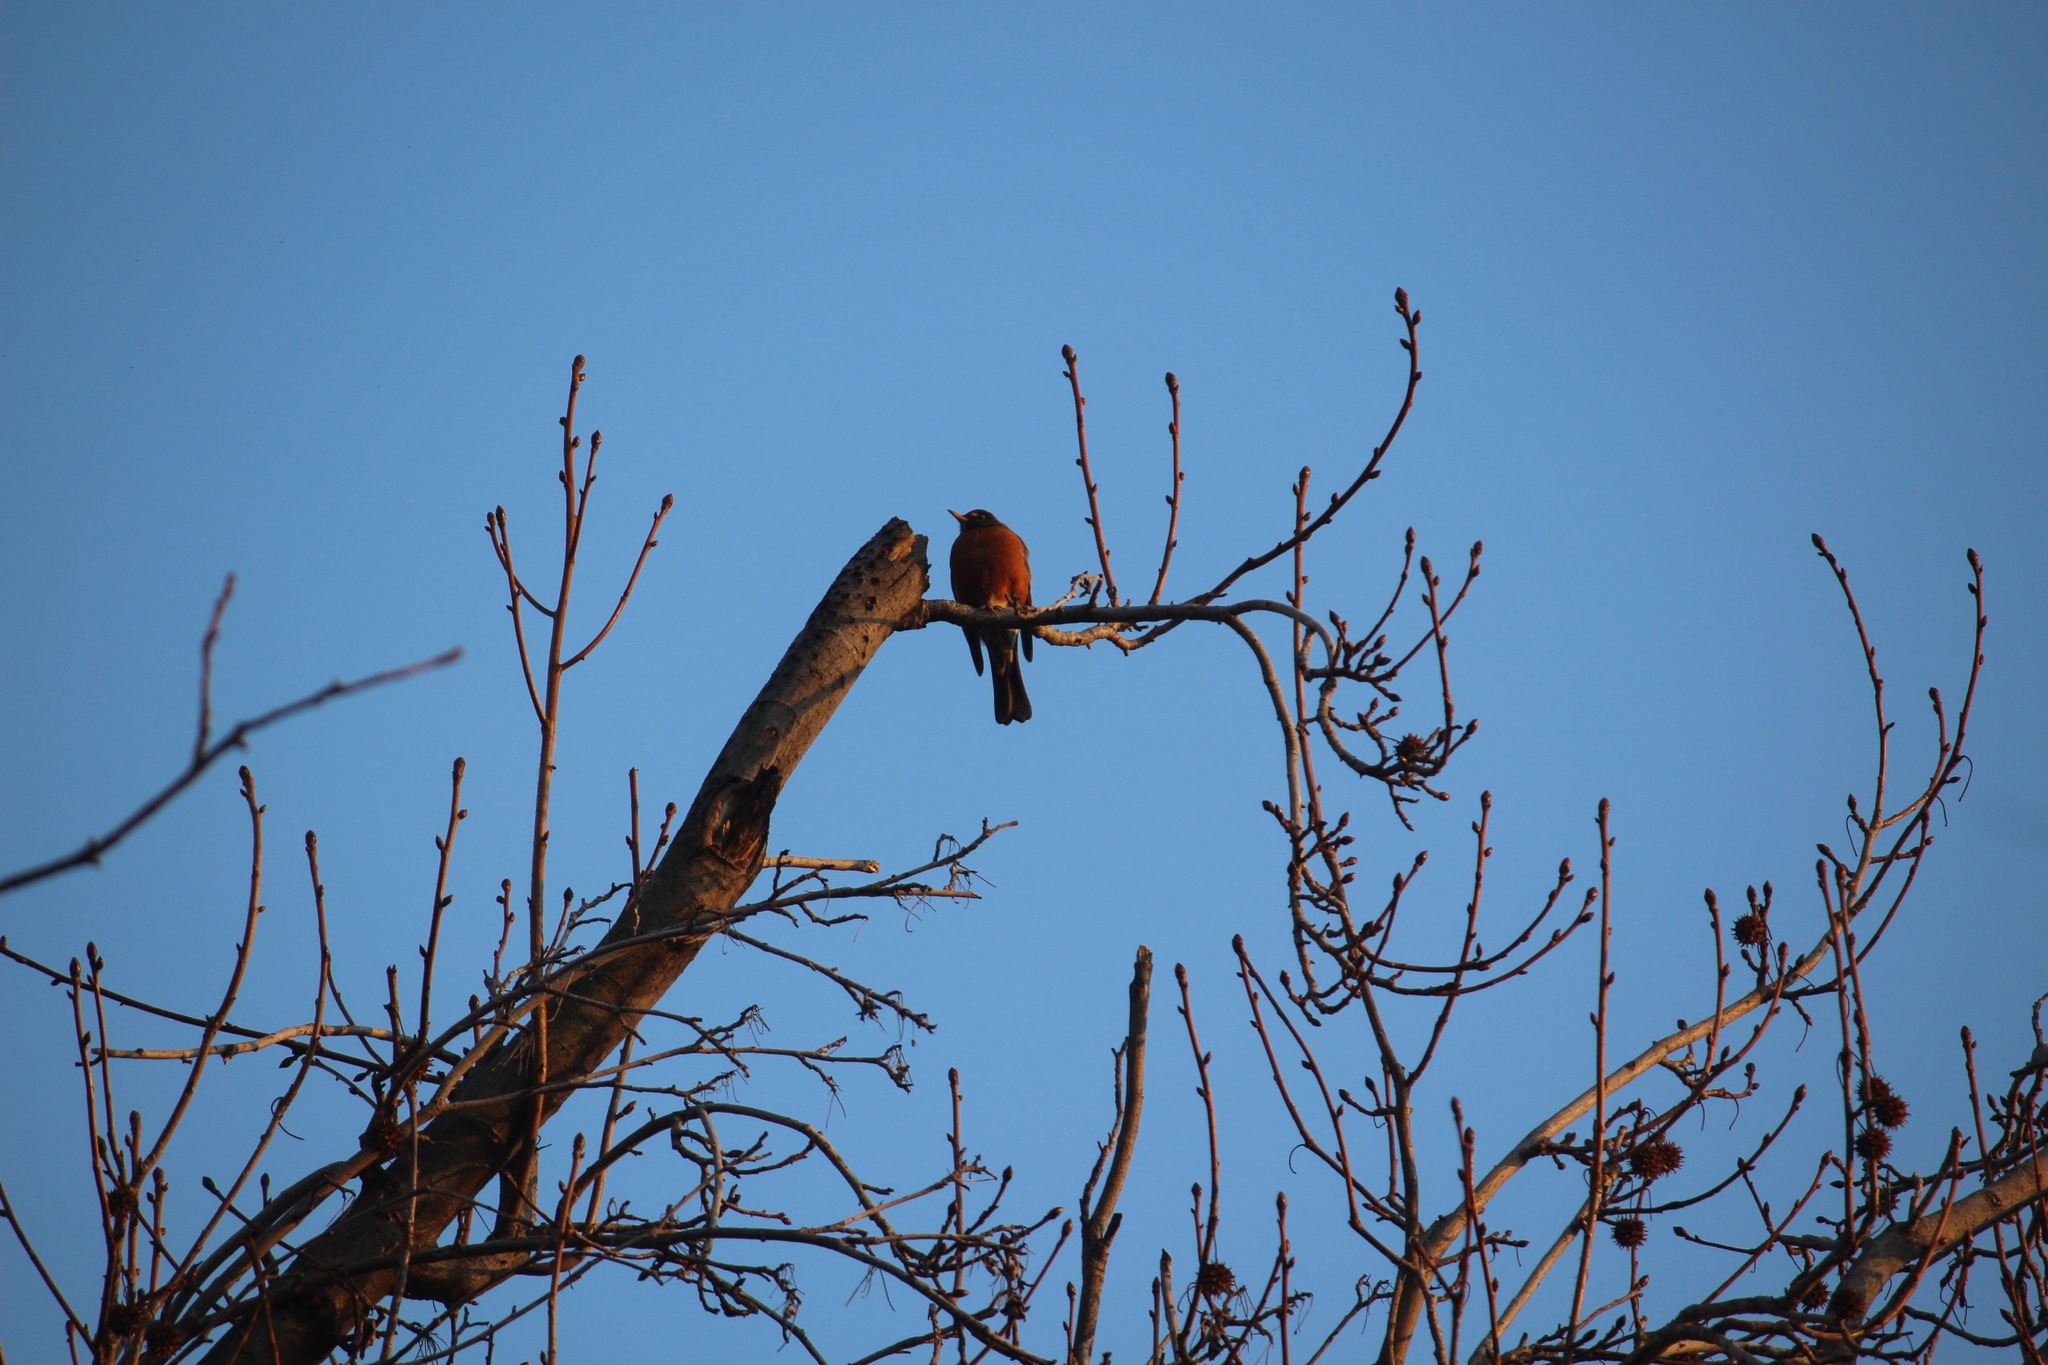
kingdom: Animalia
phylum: Chordata
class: Aves
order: Passeriformes
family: Turdidae
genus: Turdus
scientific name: Turdus migratorius
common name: American robin
